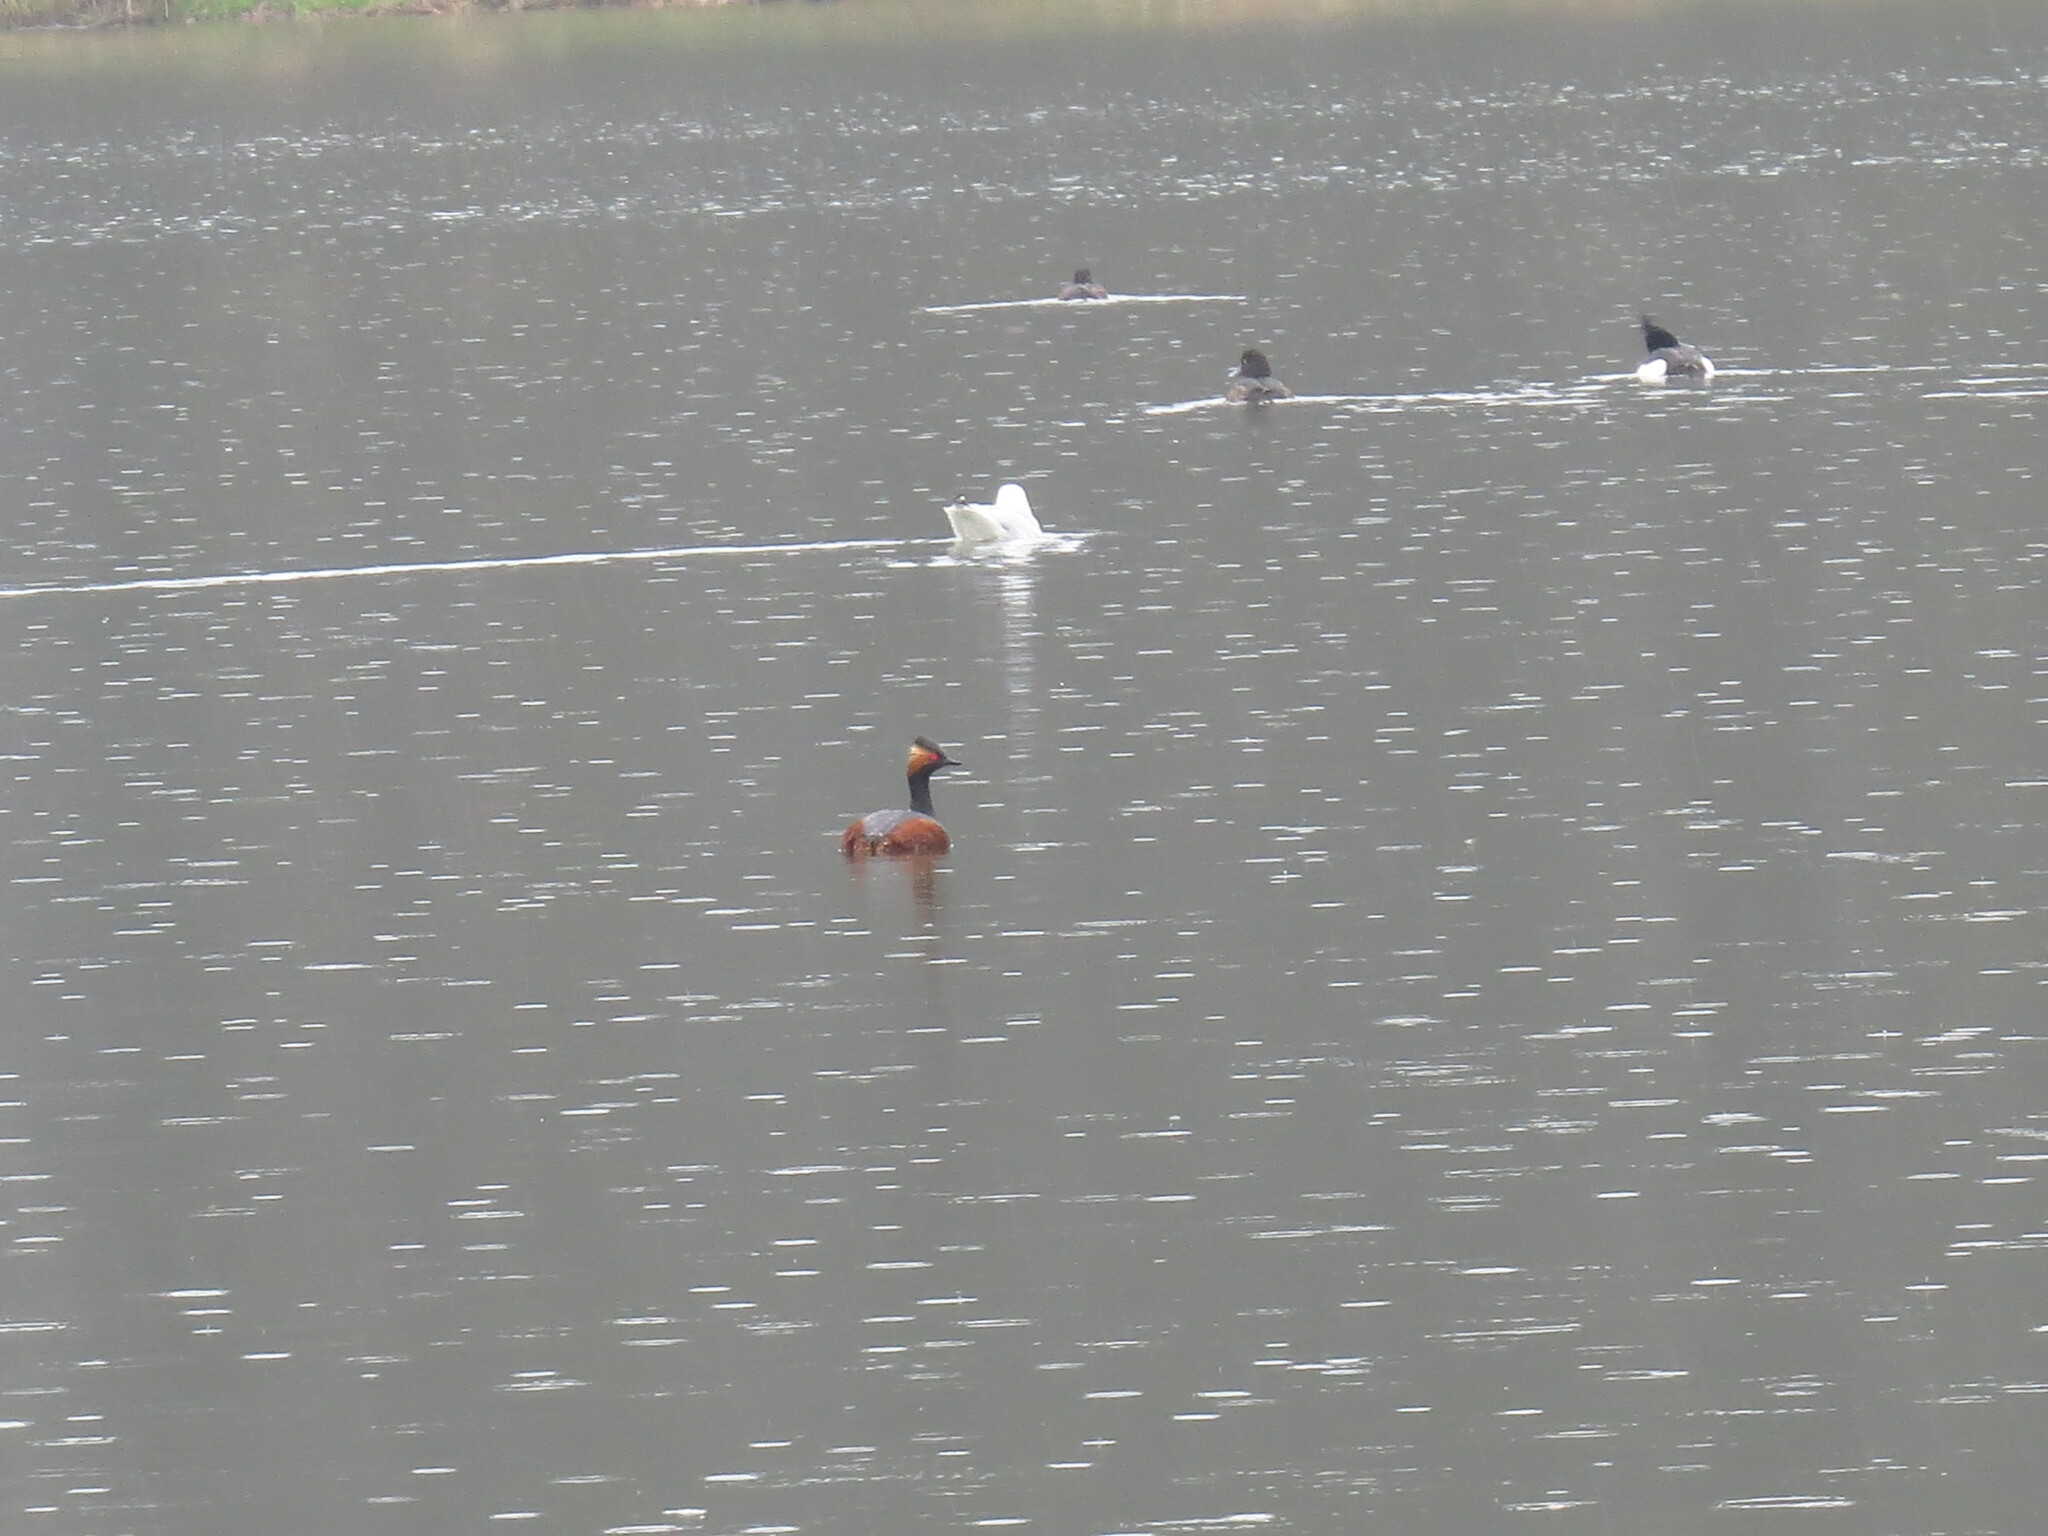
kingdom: Animalia
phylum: Chordata
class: Aves
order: Podicipediformes
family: Podicipedidae
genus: Podiceps
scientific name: Podiceps nigricollis
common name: Black-necked grebe
